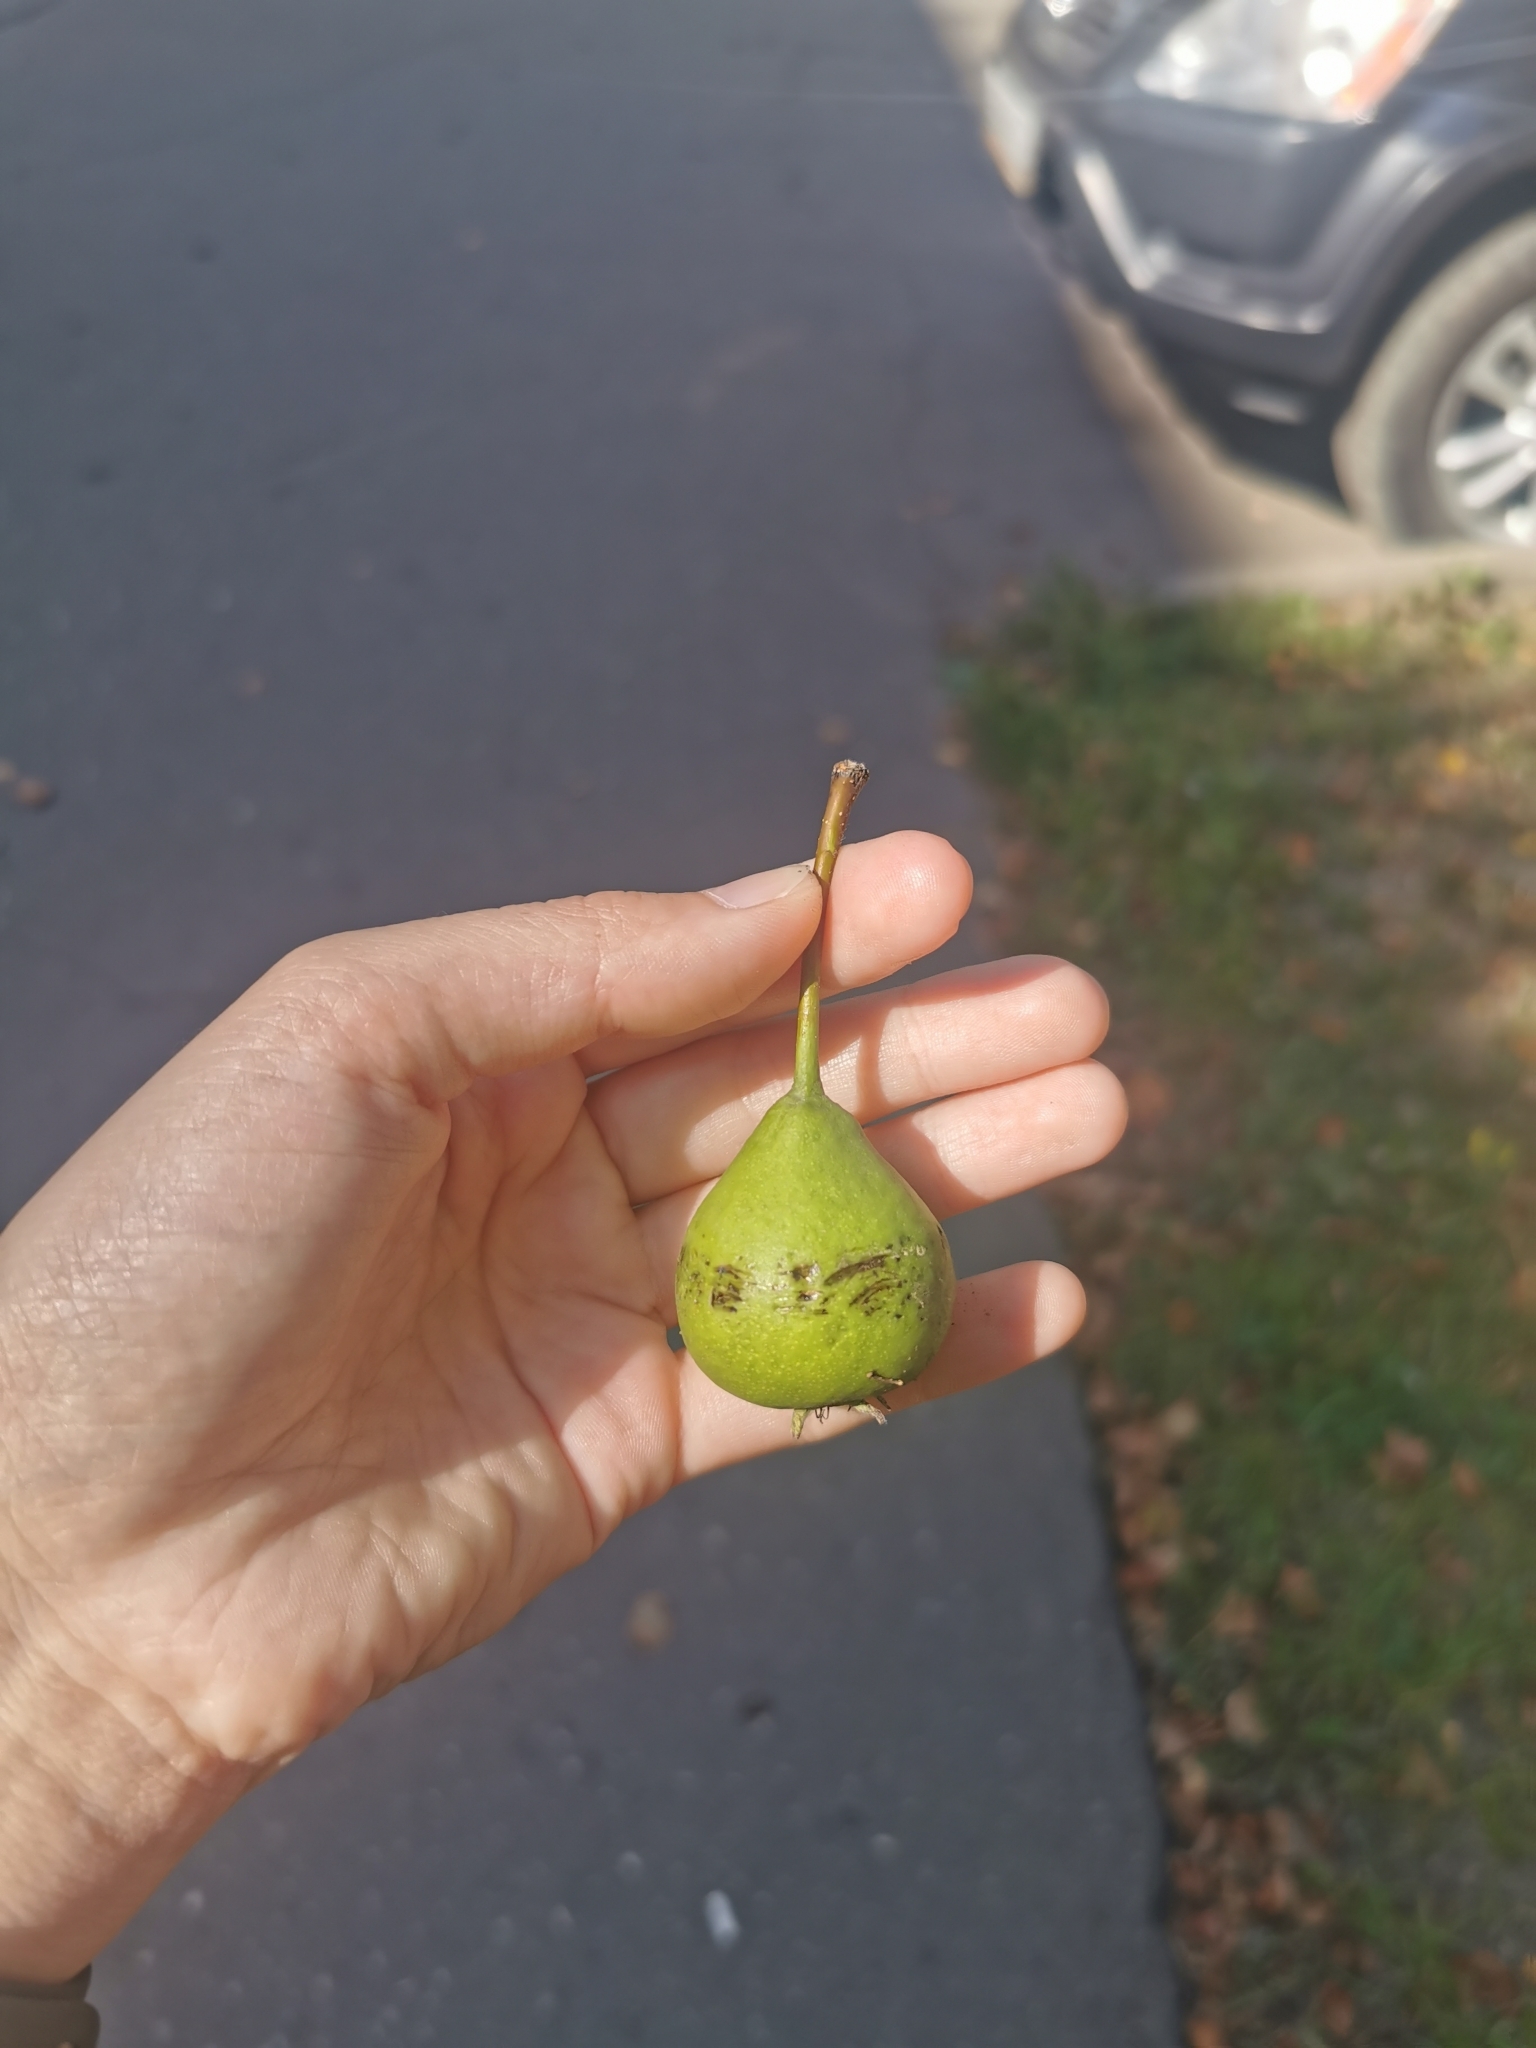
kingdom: Plantae
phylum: Tracheophyta
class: Magnoliopsida
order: Rosales
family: Rosaceae
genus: Pyrus
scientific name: Pyrus communis
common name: Pear
